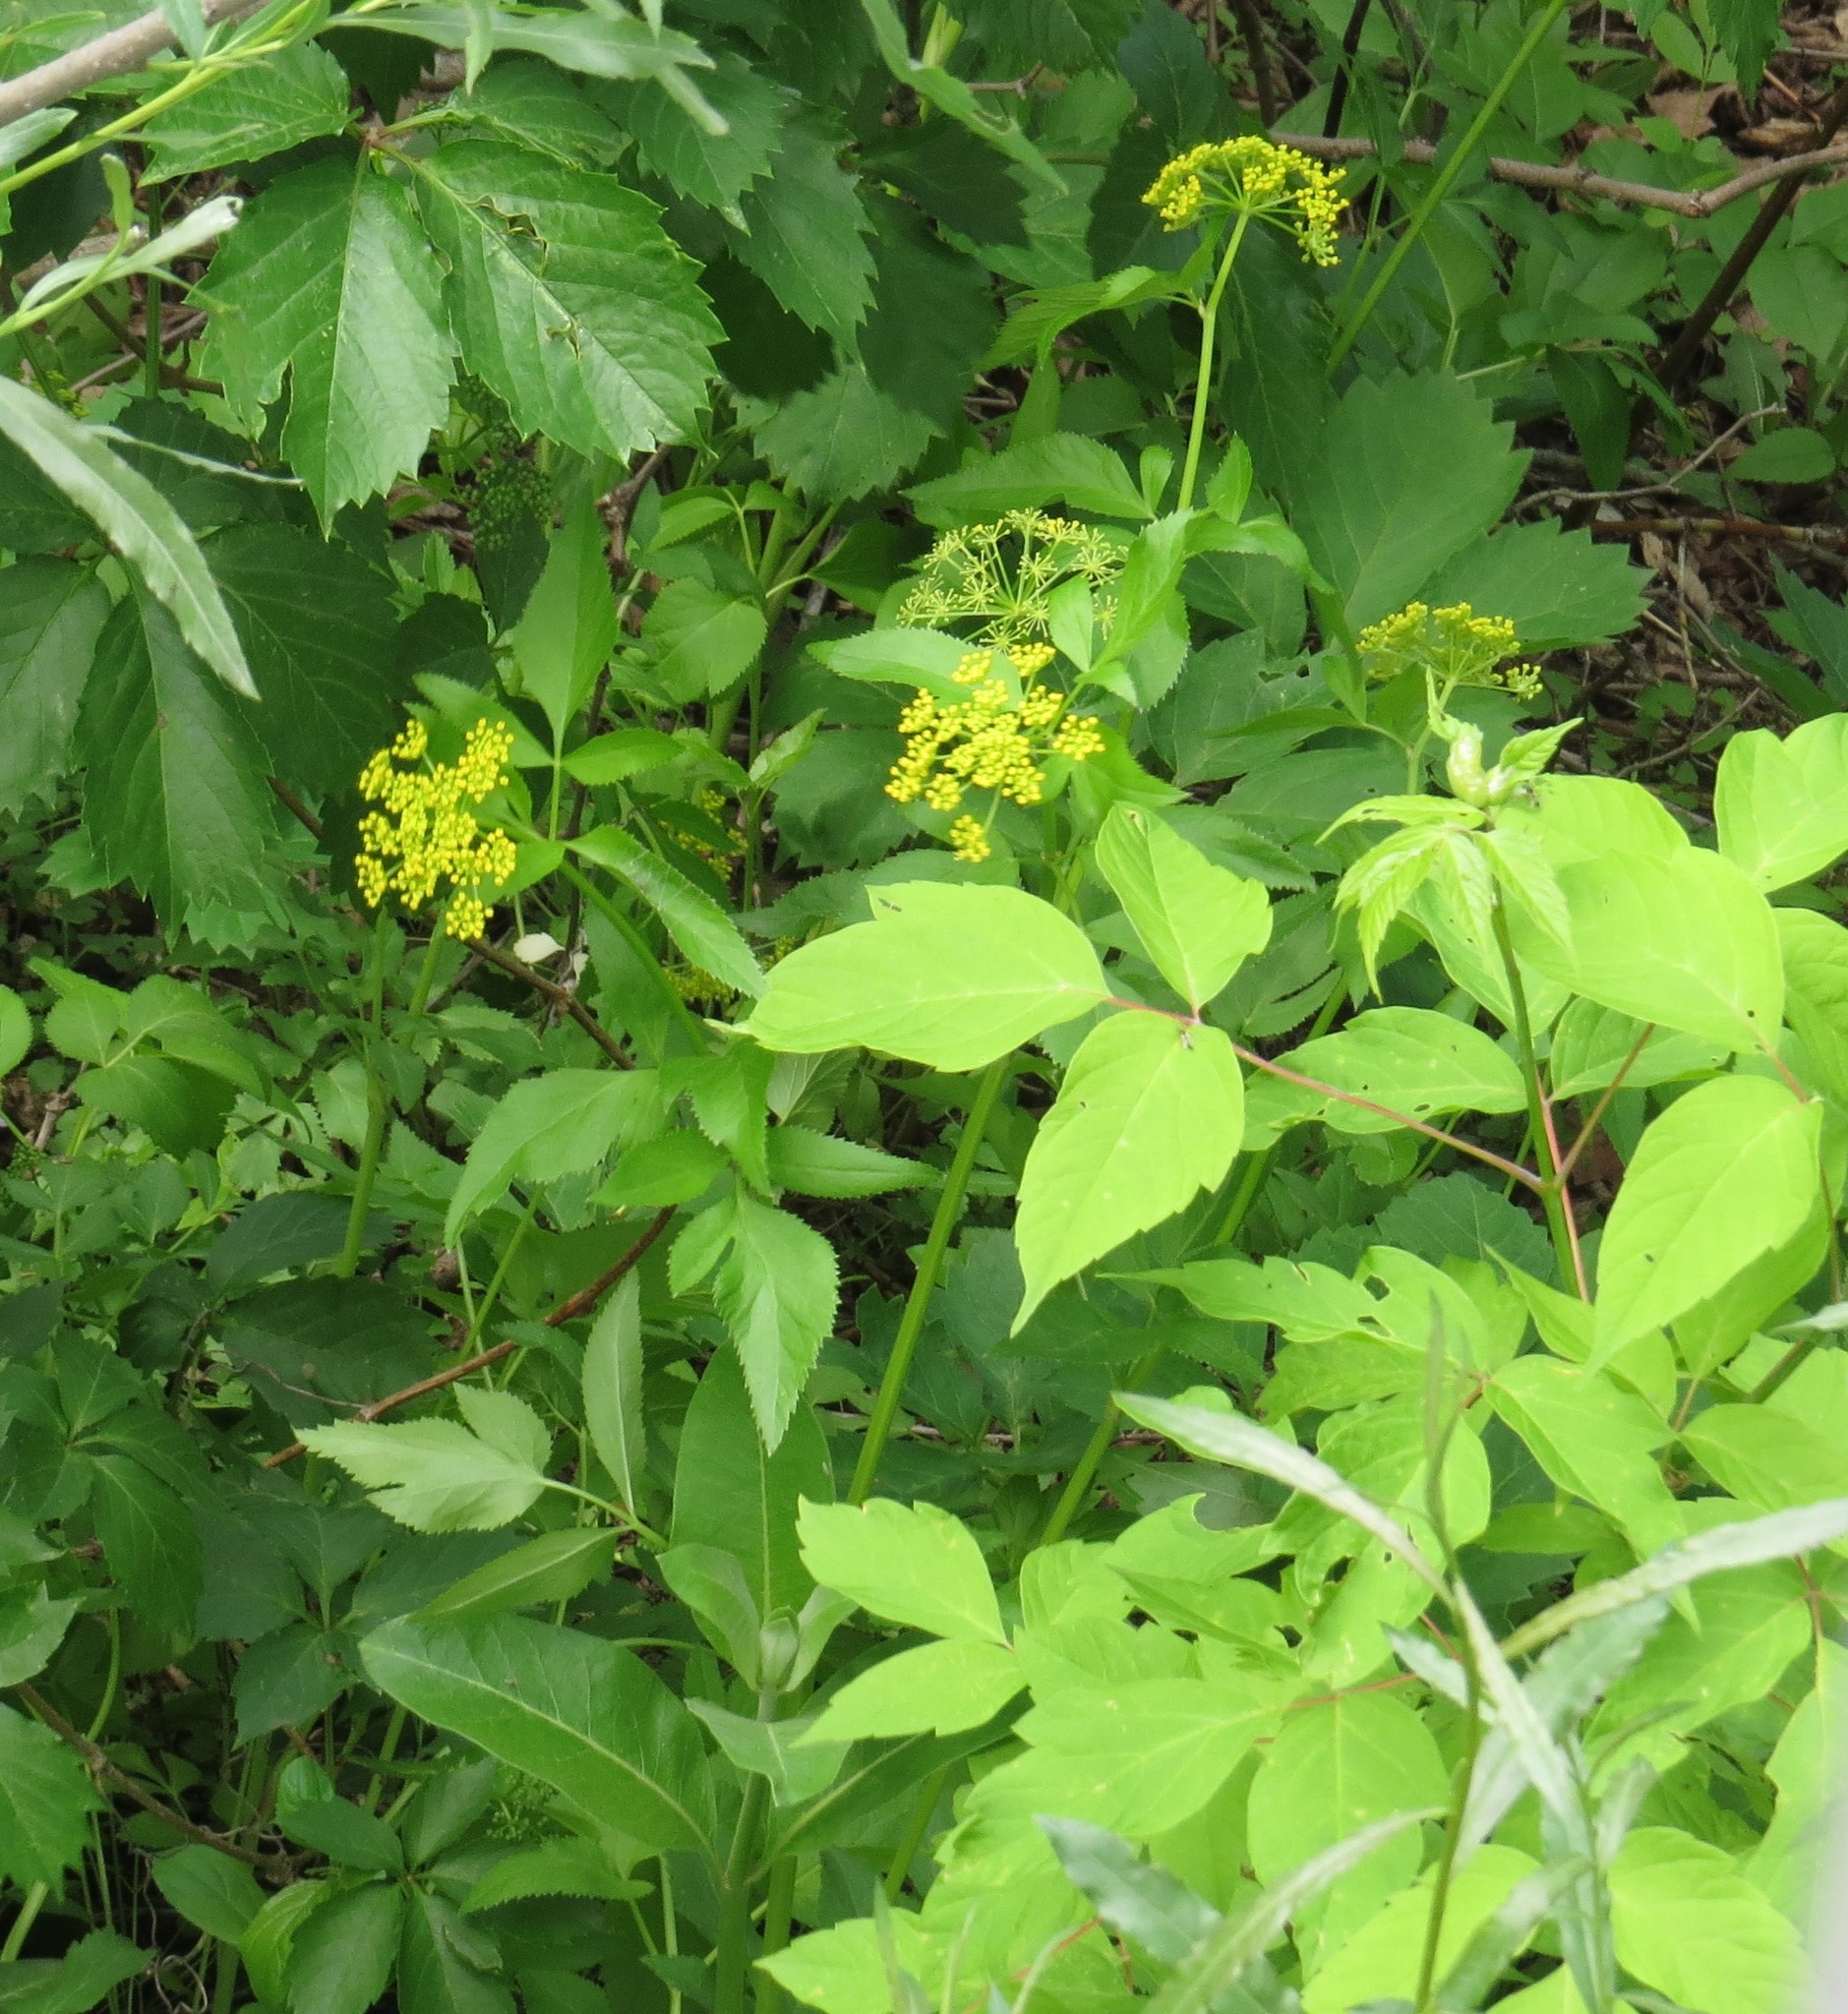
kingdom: Plantae
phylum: Tracheophyta
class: Magnoliopsida
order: Apiales
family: Apiaceae
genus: Zizia
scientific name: Zizia aurea
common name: Golden alexanders
